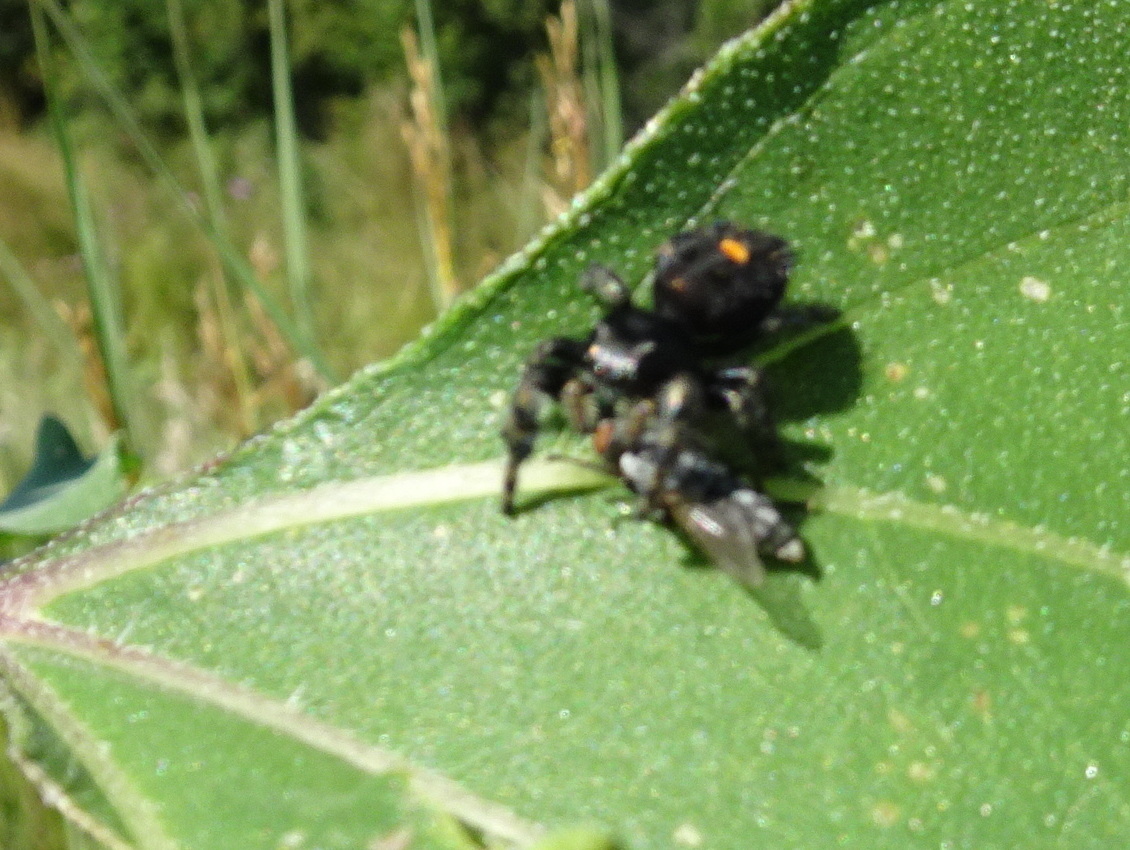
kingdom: Animalia
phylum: Arthropoda
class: Arachnida
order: Araneae
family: Salticidae
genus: Phidippus
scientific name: Phidippus audax
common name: Bold jumper
